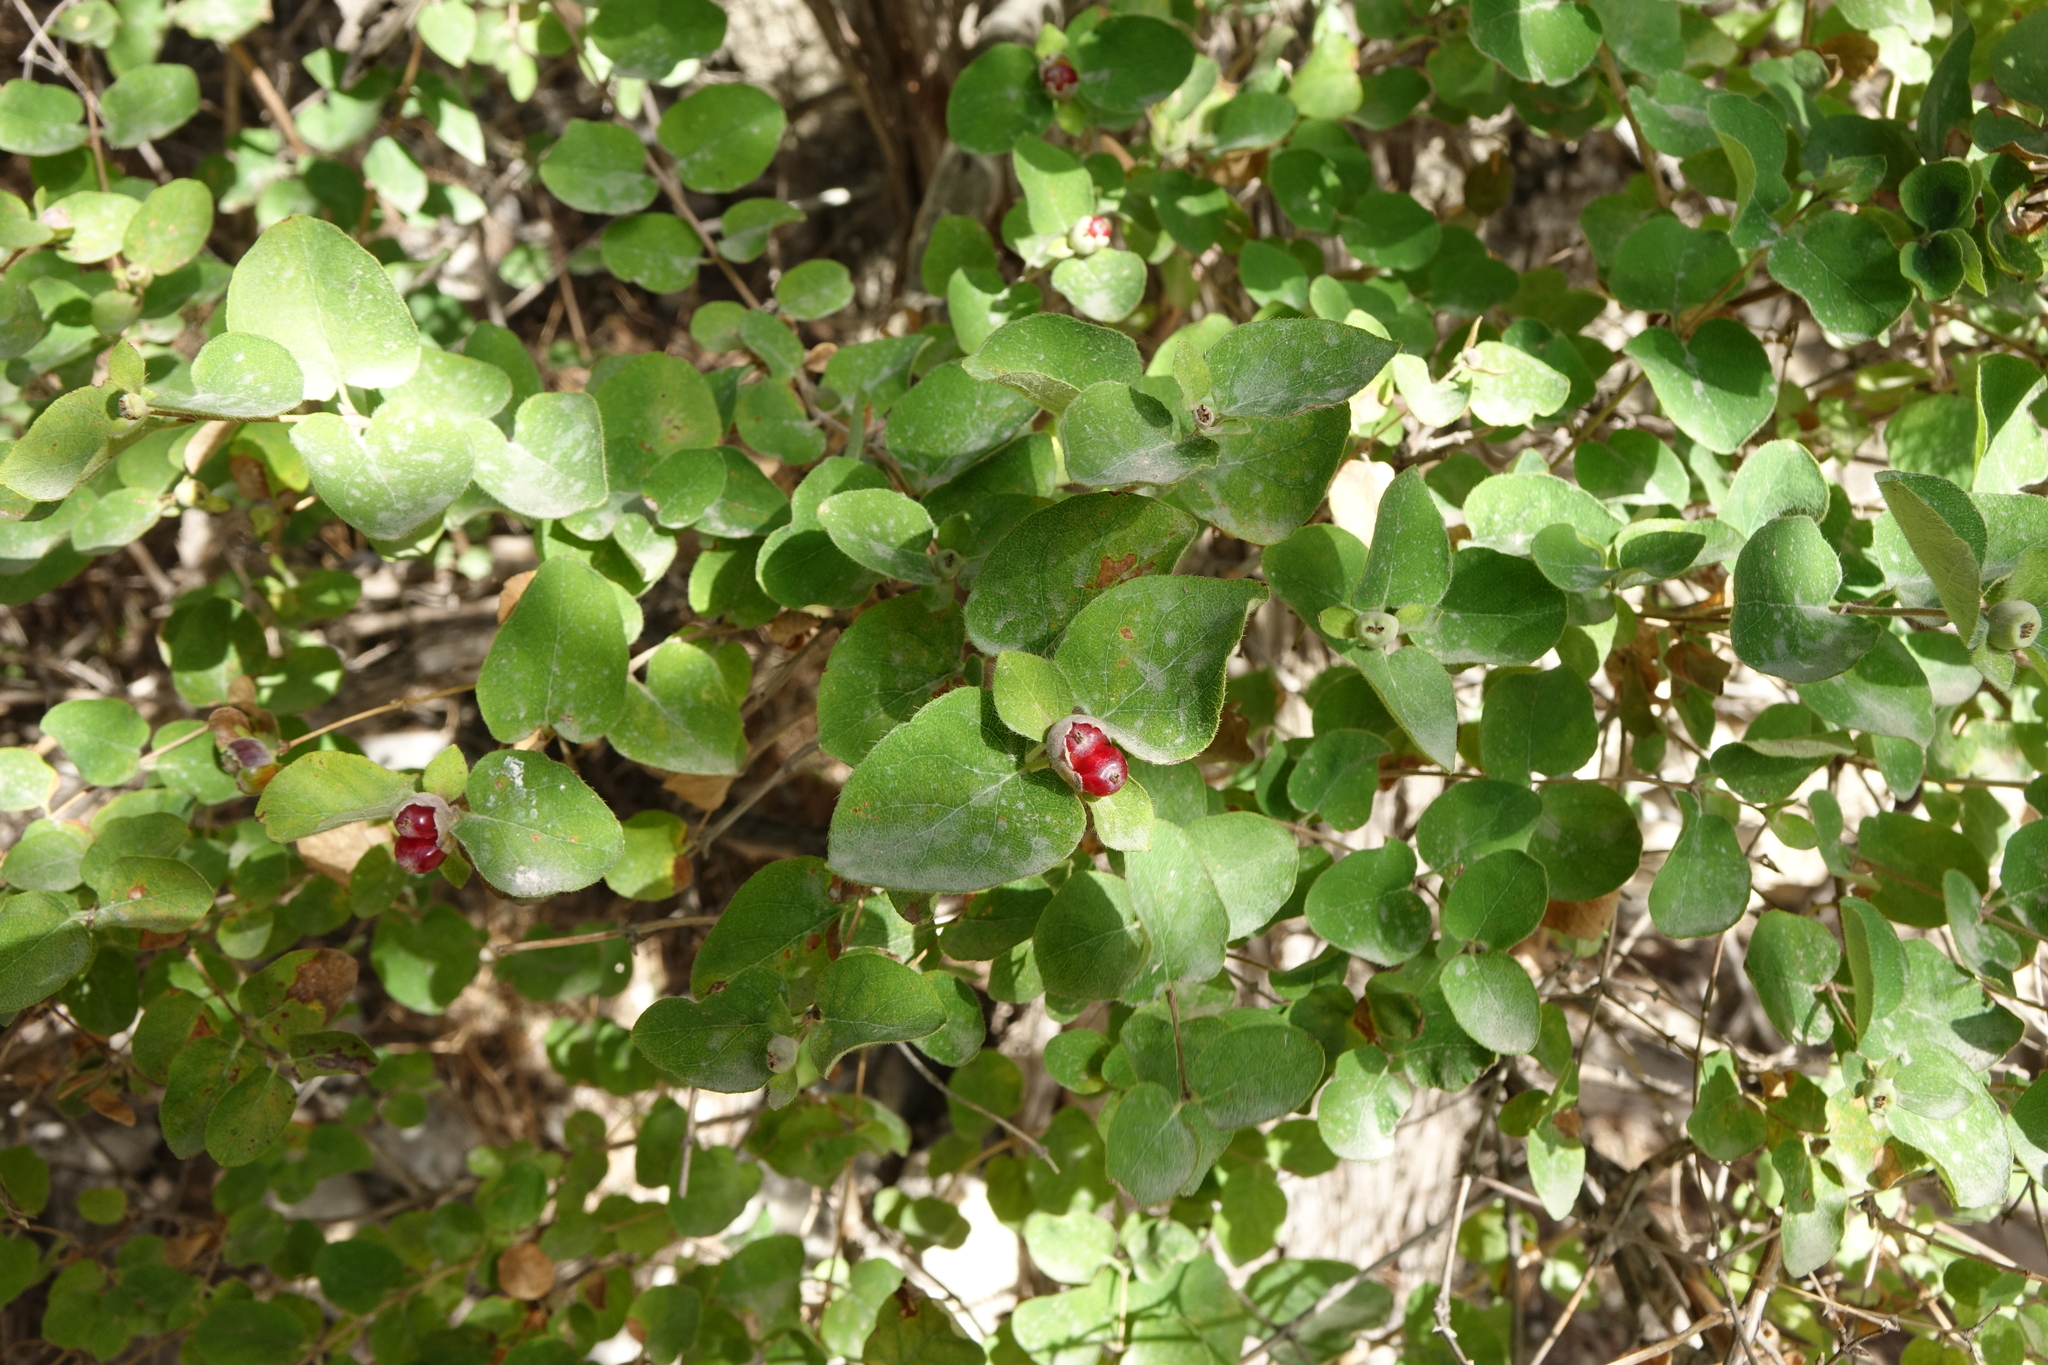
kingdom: Plantae
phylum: Tracheophyta
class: Magnoliopsida
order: Dipsacales
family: Caprifoliaceae
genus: Lonicera
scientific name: Lonicera iberica
